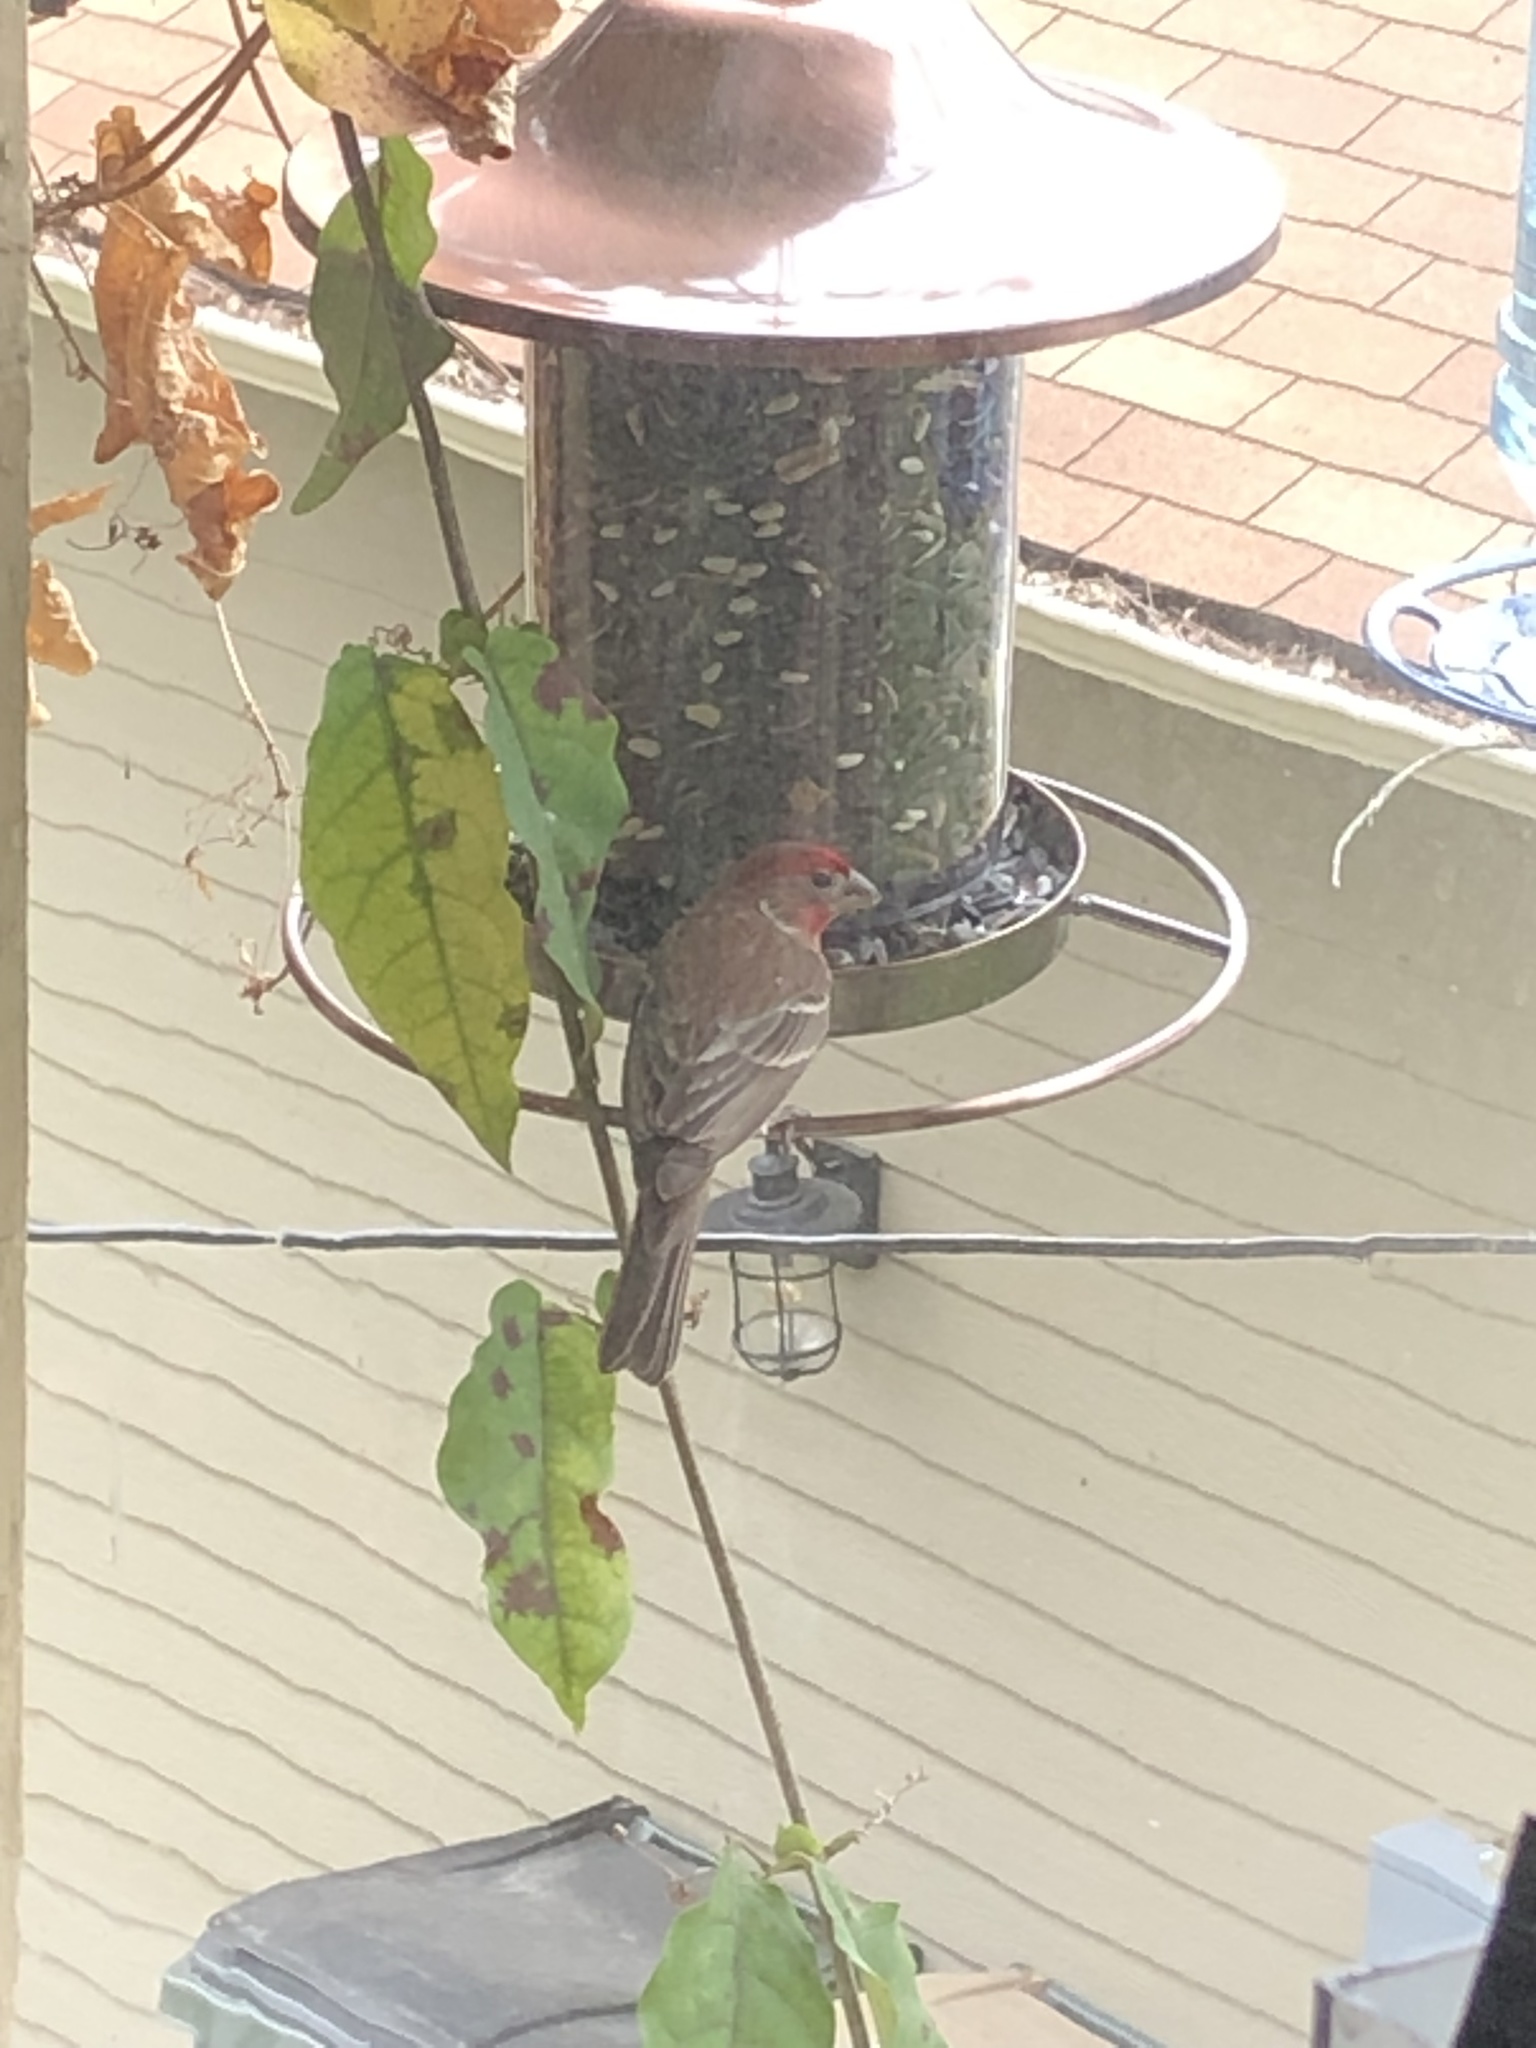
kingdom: Animalia
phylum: Chordata
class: Aves
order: Passeriformes
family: Fringillidae
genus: Haemorhous
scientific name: Haemorhous mexicanus
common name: House finch
